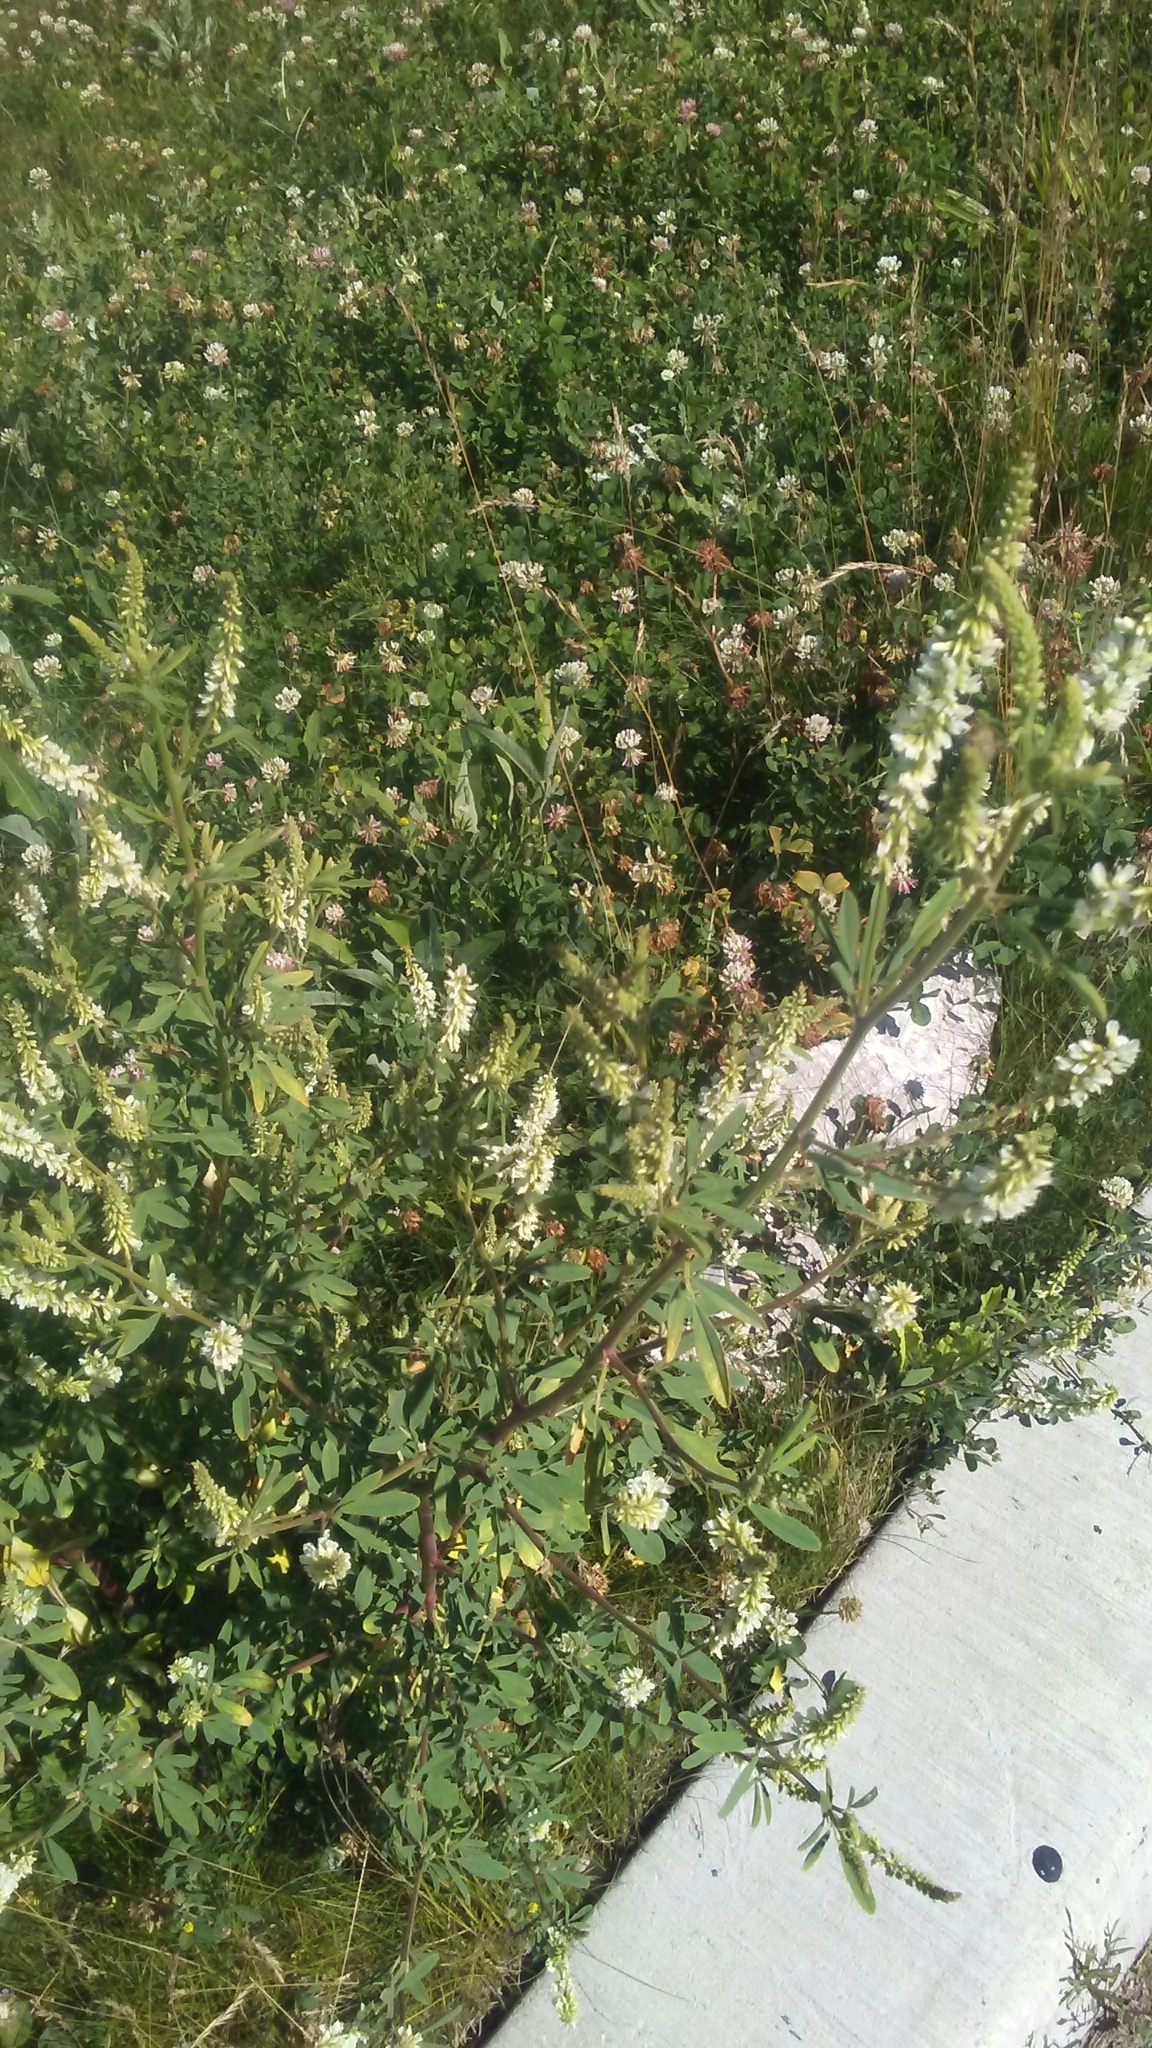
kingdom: Plantae
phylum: Tracheophyta
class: Magnoliopsida
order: Fabales
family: Fabaceae
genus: Melilotus
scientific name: Melilotus albus
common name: White melilot
